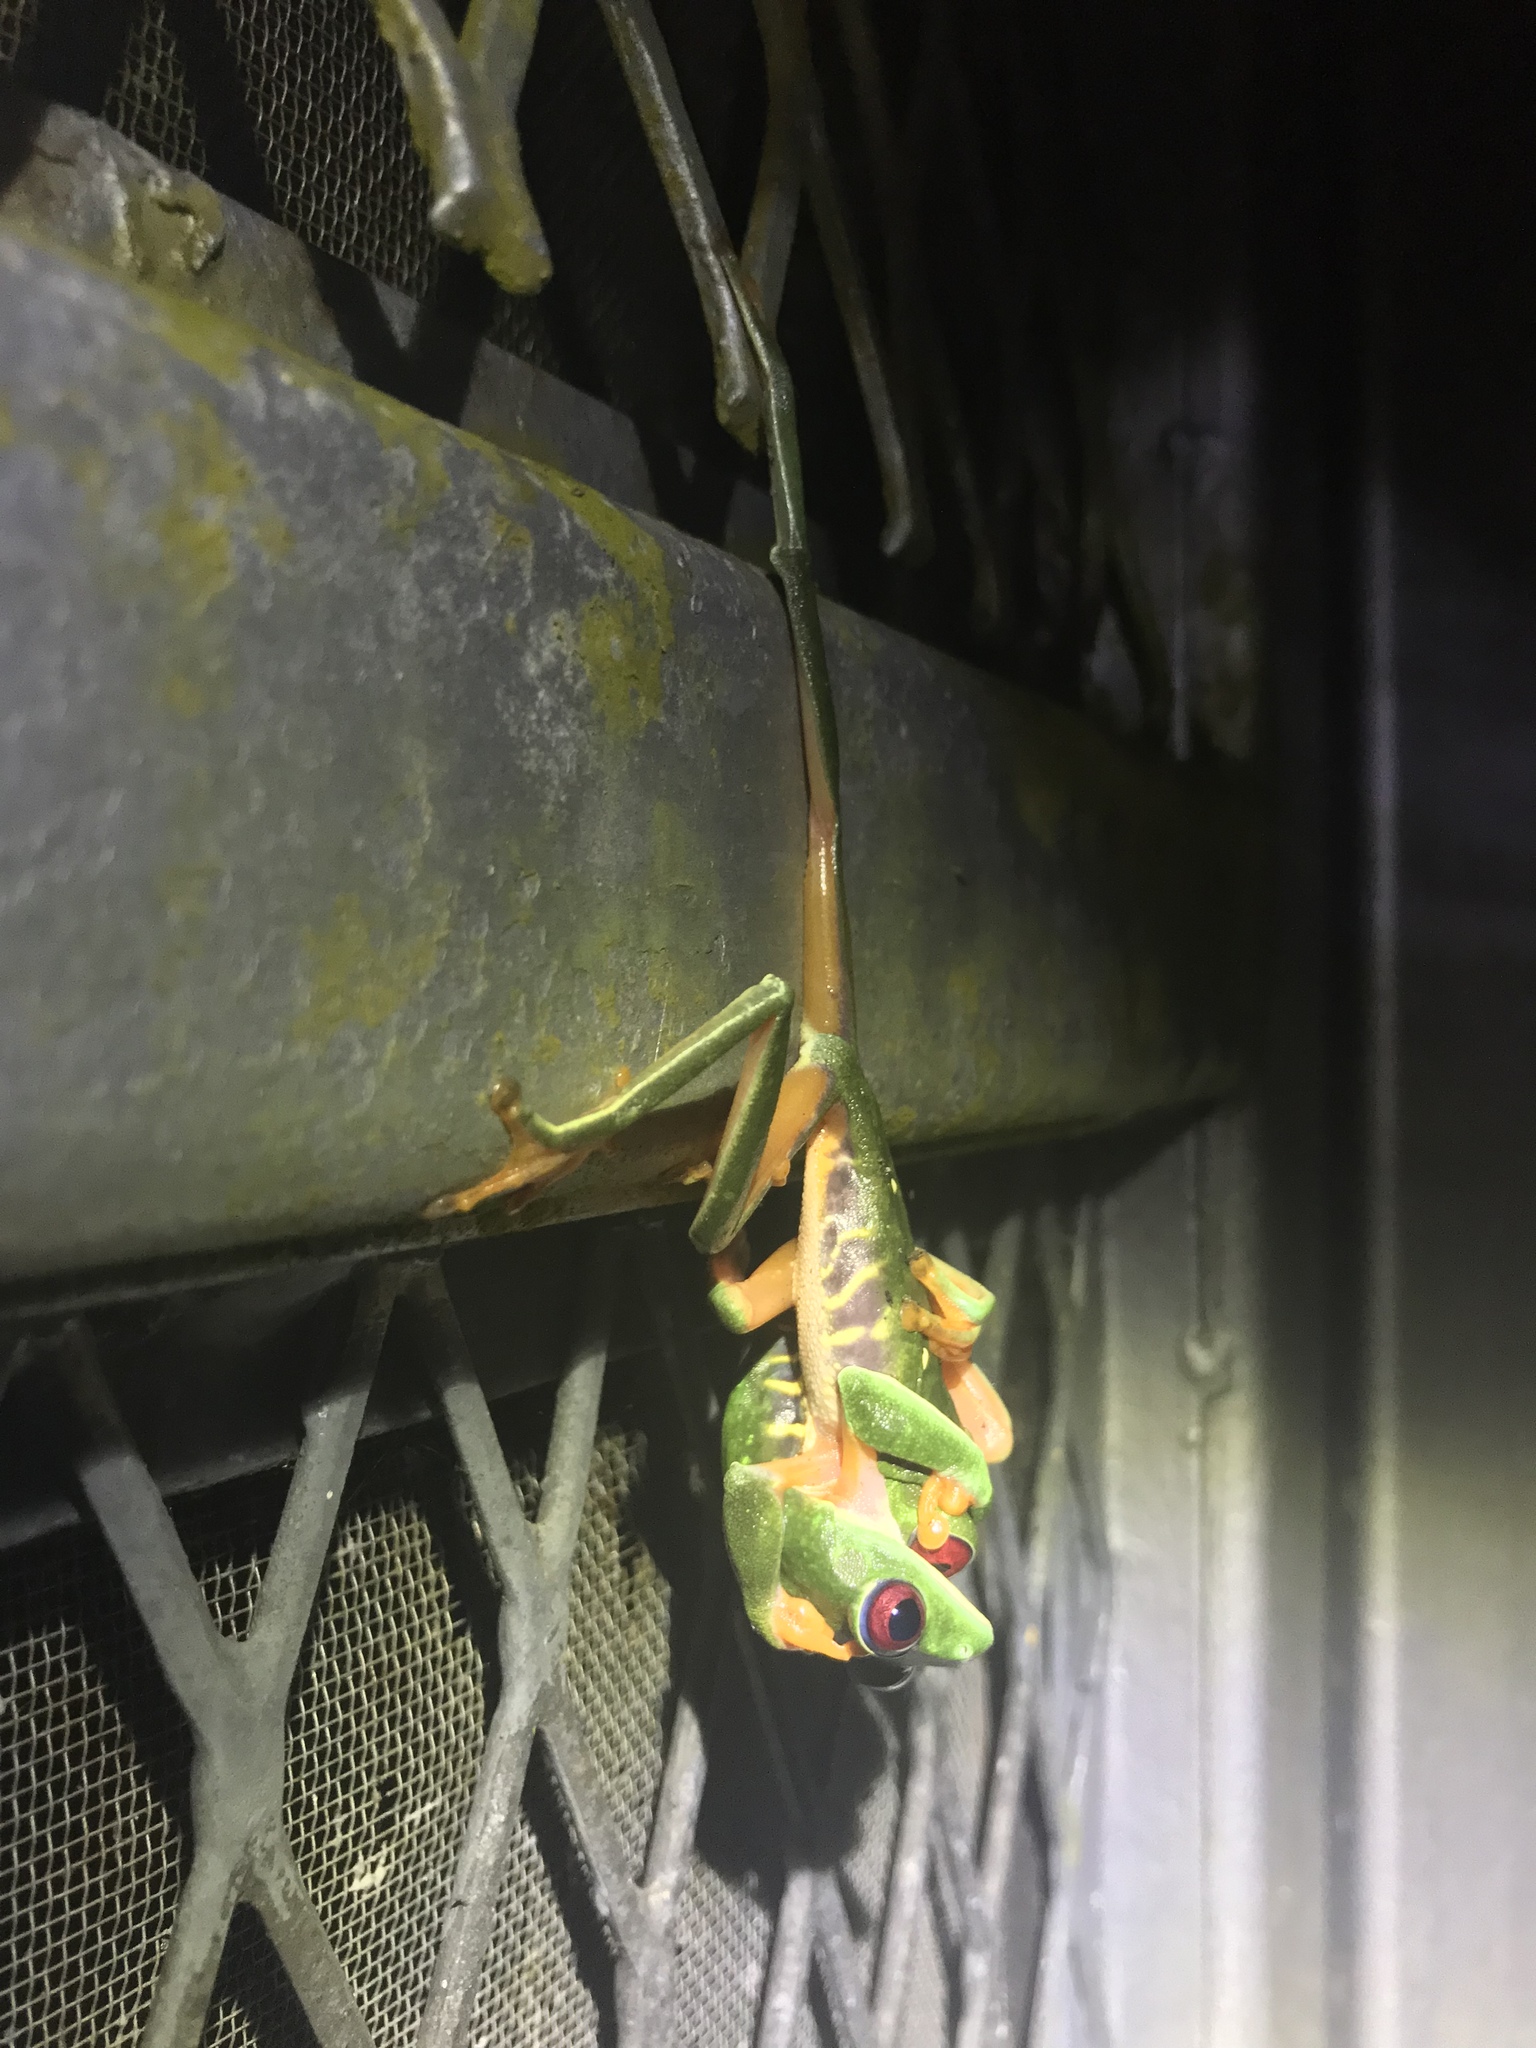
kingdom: Animalia
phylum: Chordata
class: Amphibia
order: Anura
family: Phyllomedusidae
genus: Agalychnis
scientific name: Agalychnis callidryas
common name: Red-eyed treefrog
